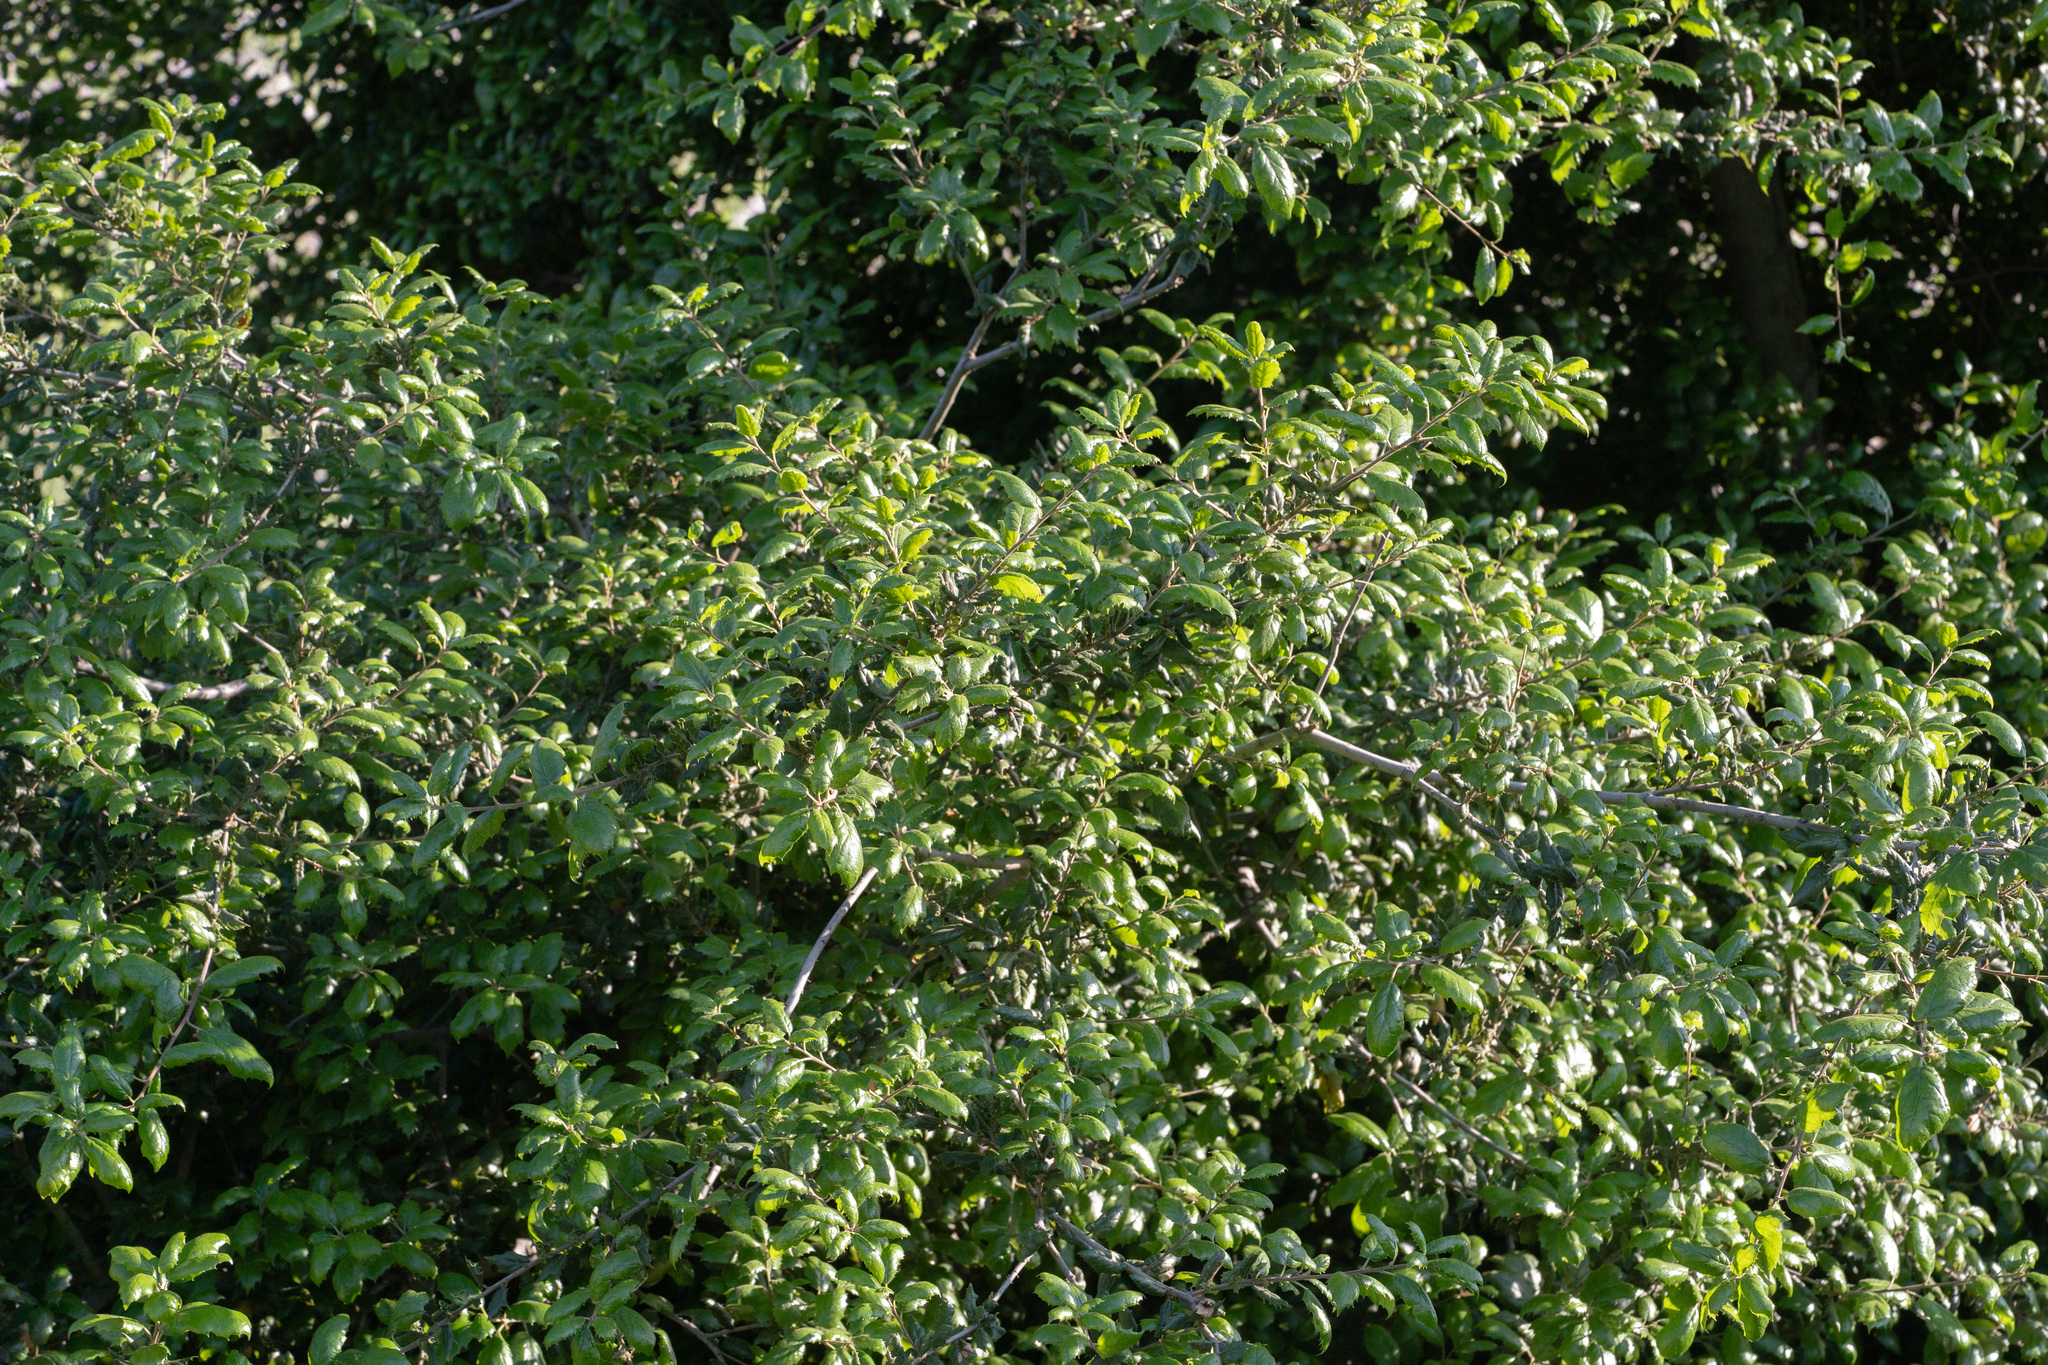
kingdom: Plantae
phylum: Tracheophyta
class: Magnoliopsida
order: Fagales
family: Fagaceae
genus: Quercus
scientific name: Quercus agrifolia
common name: California live oak
